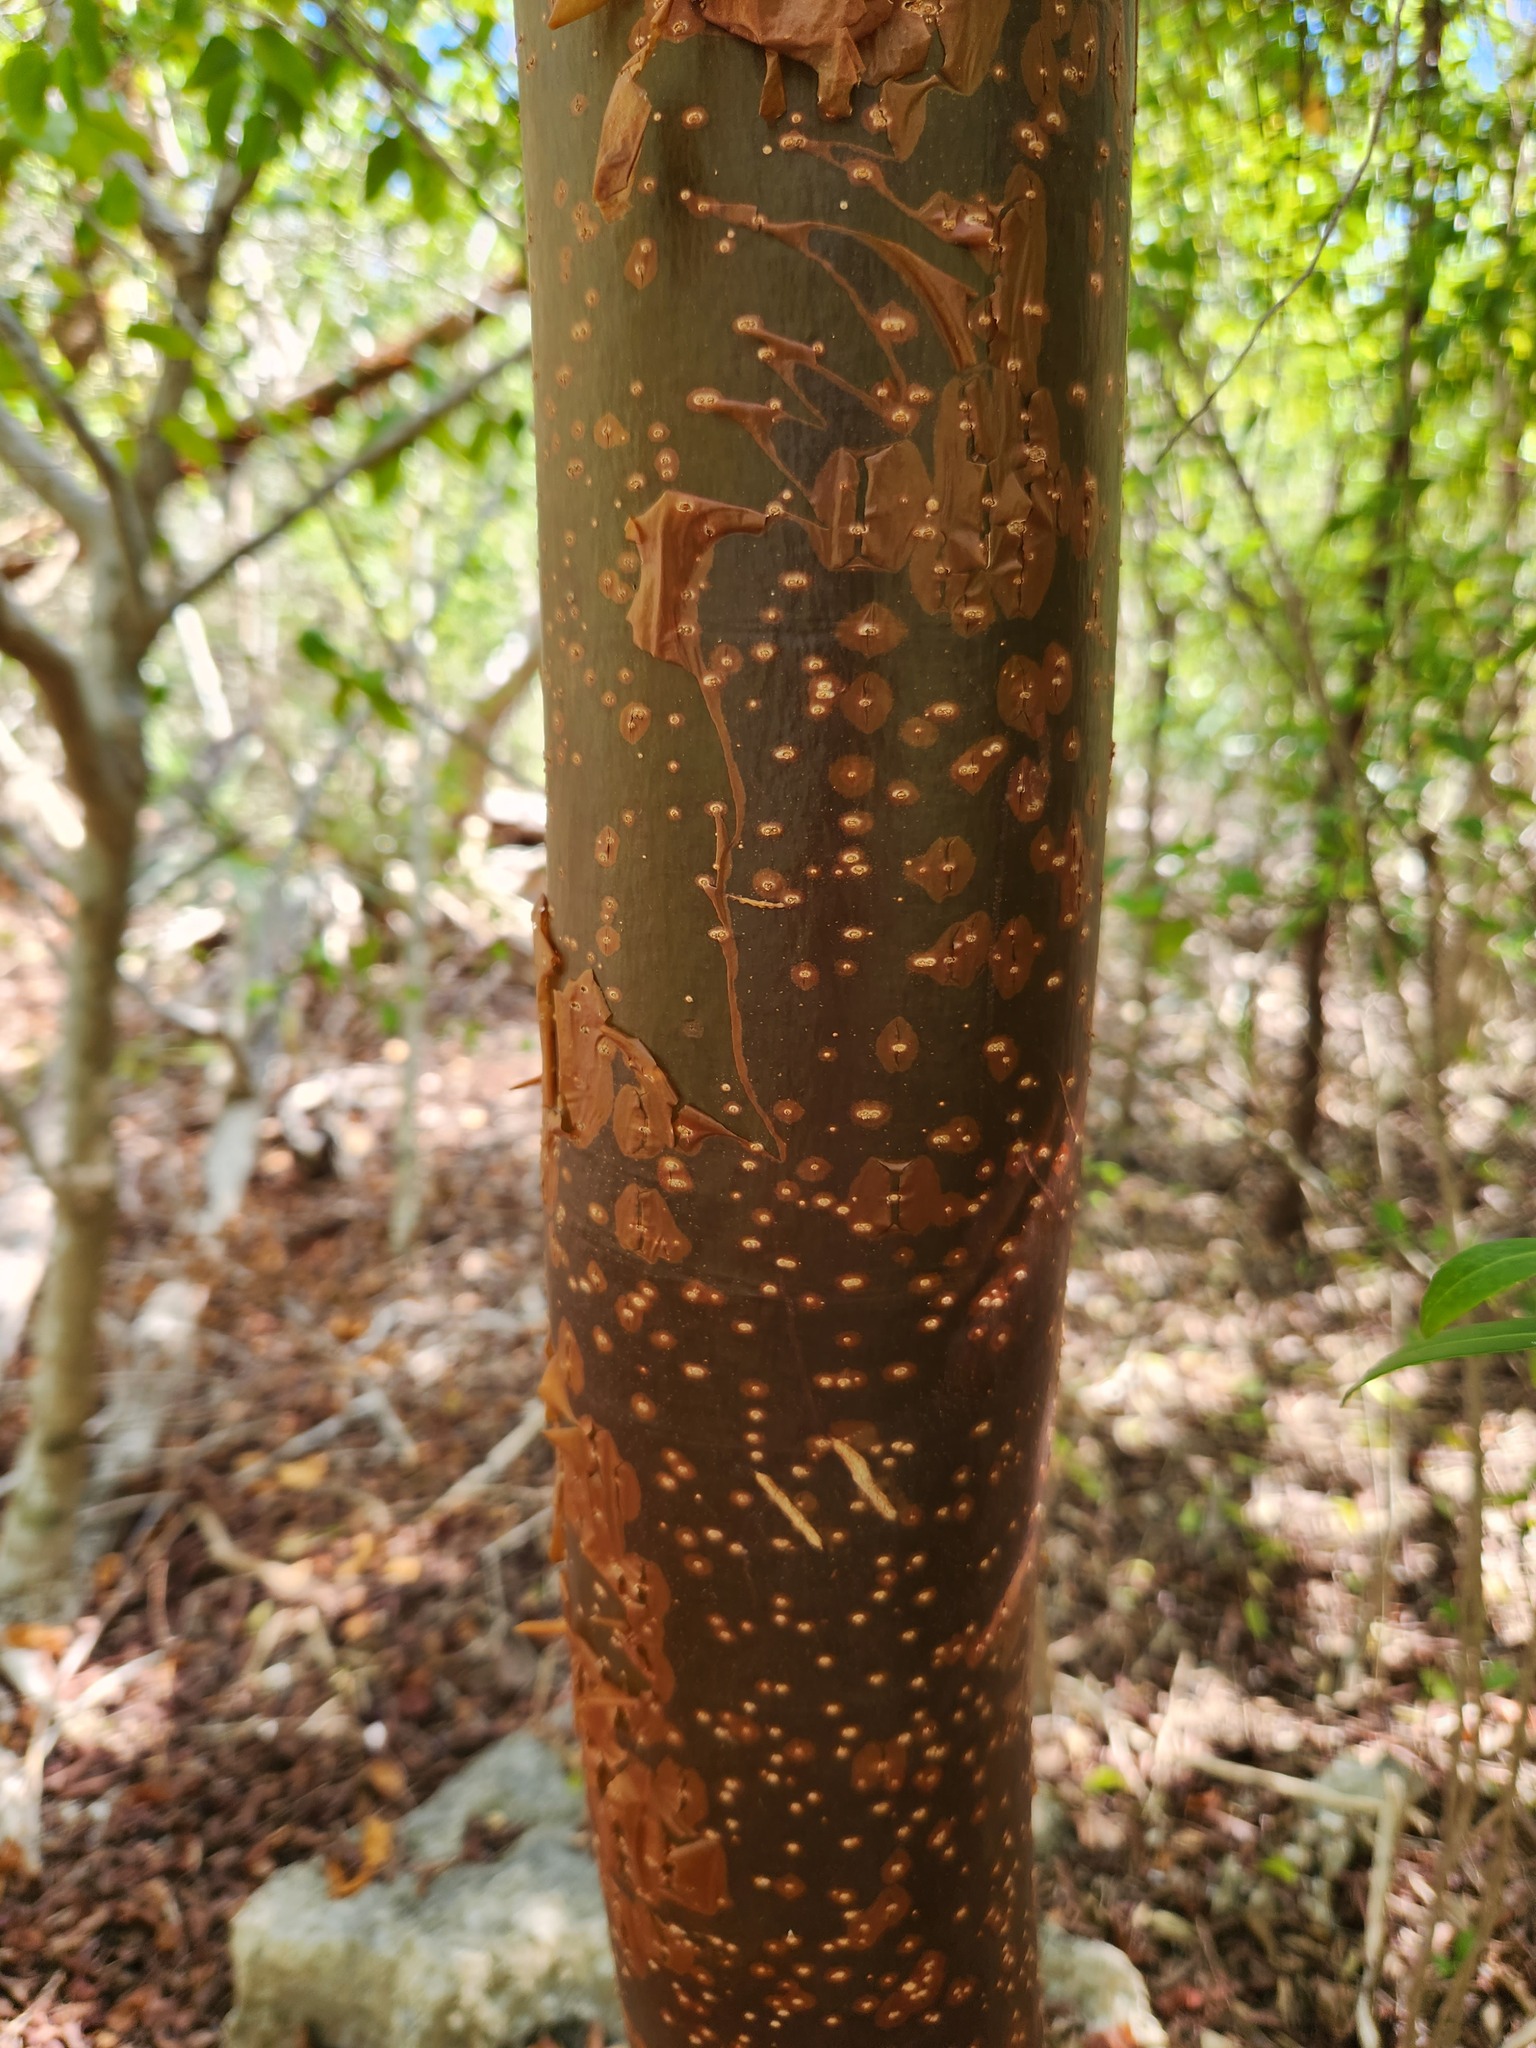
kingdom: Plantae
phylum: Tracheophyta
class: Magnoliopsida
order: Sapindales
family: Burseraceae
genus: Bursera
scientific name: Bursera simaruba
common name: Turpentine tree
